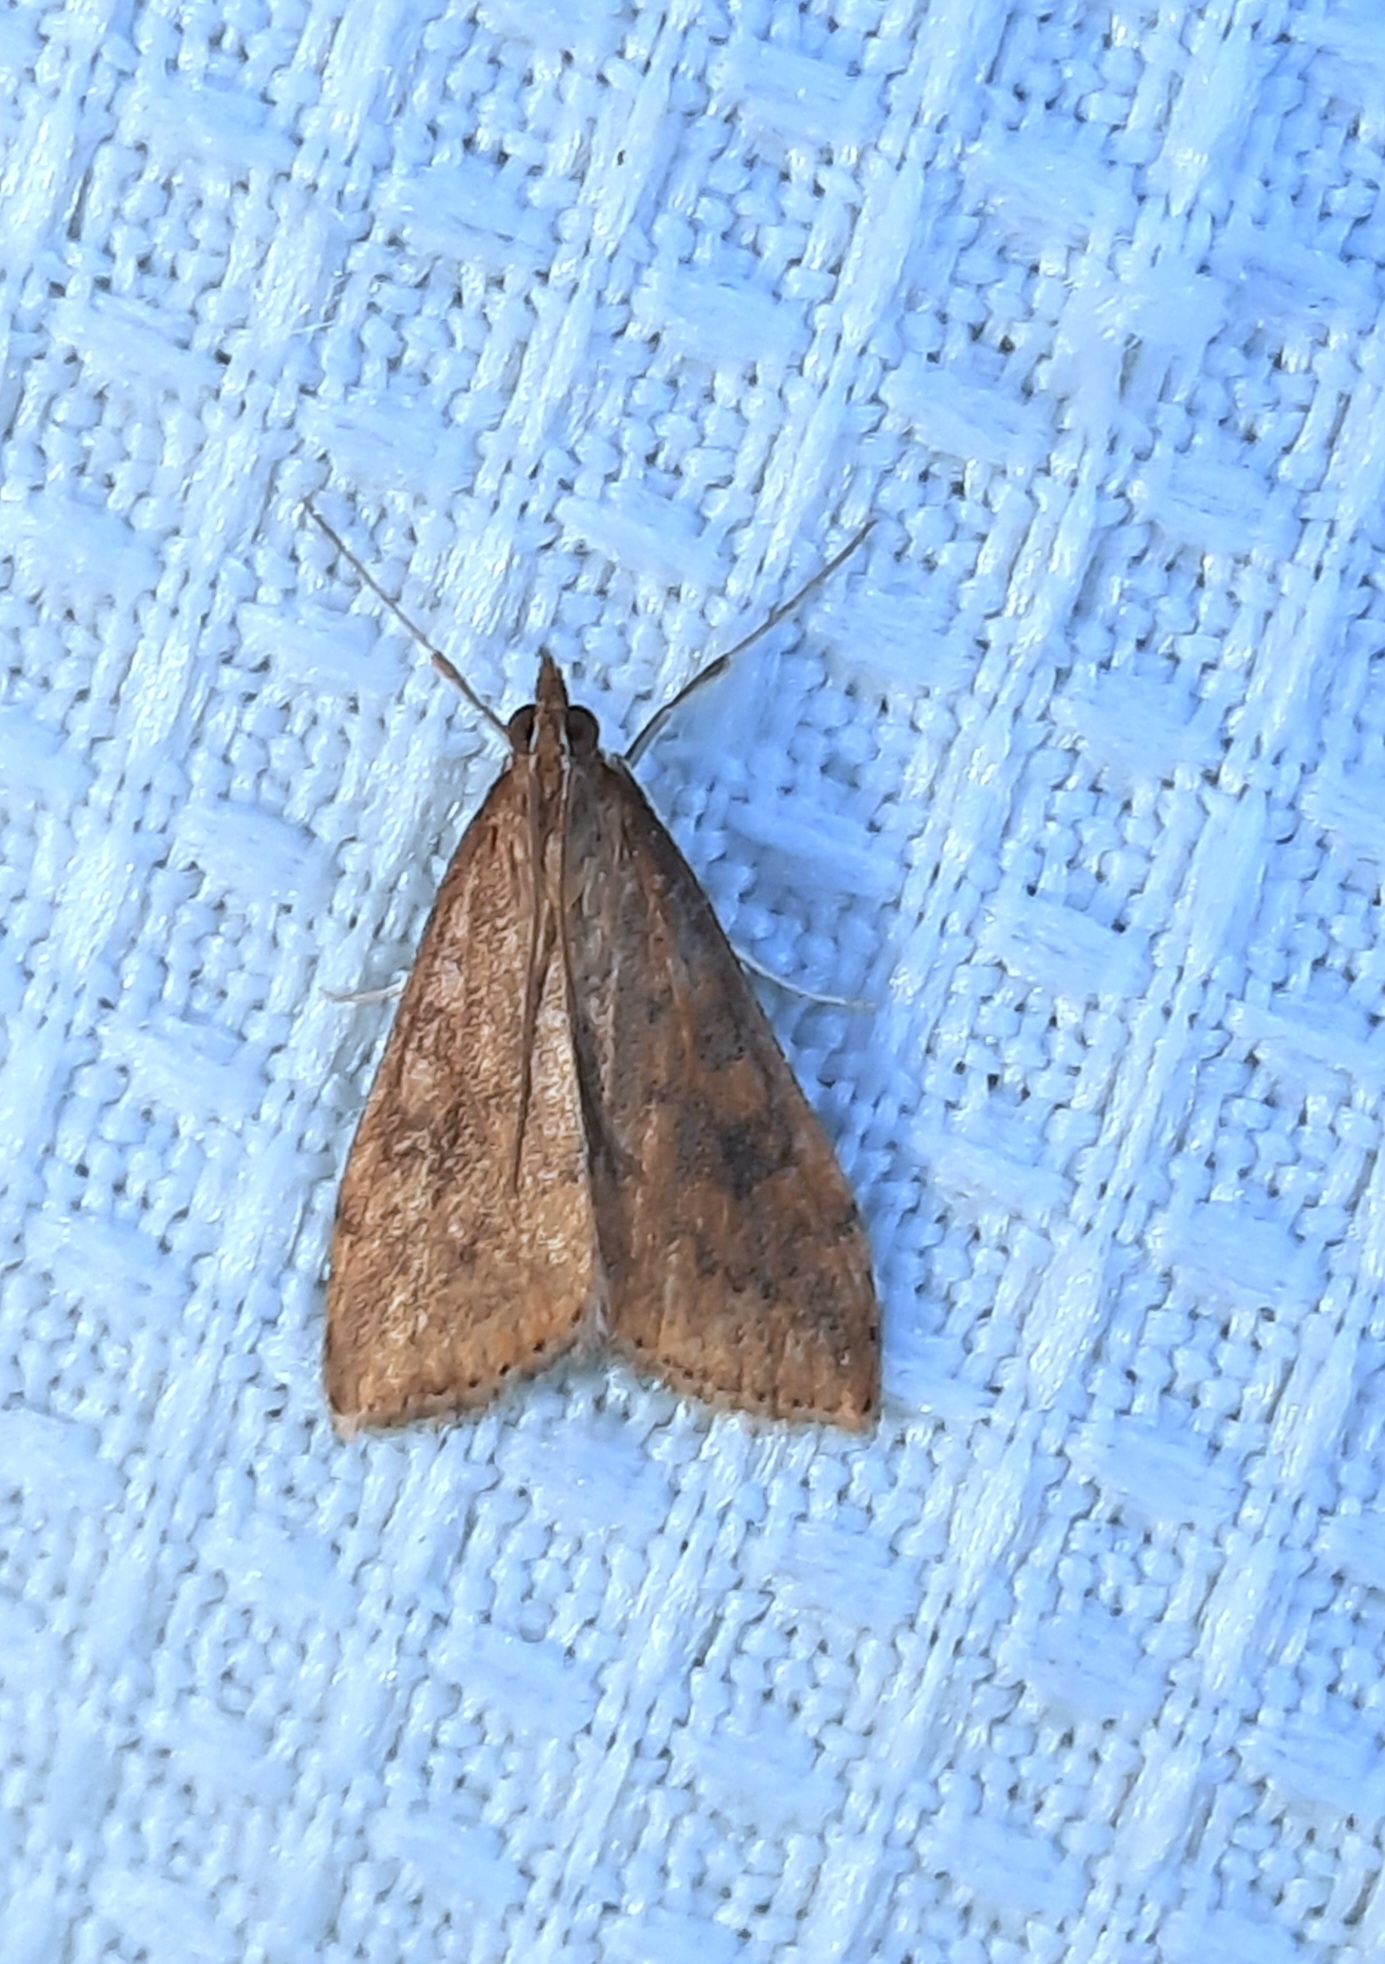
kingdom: Animalia
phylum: Arthropoda
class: Insecta
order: Lepidoptera
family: Crambidae
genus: Udea
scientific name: Udea ferrugalis
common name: Rusty dot
